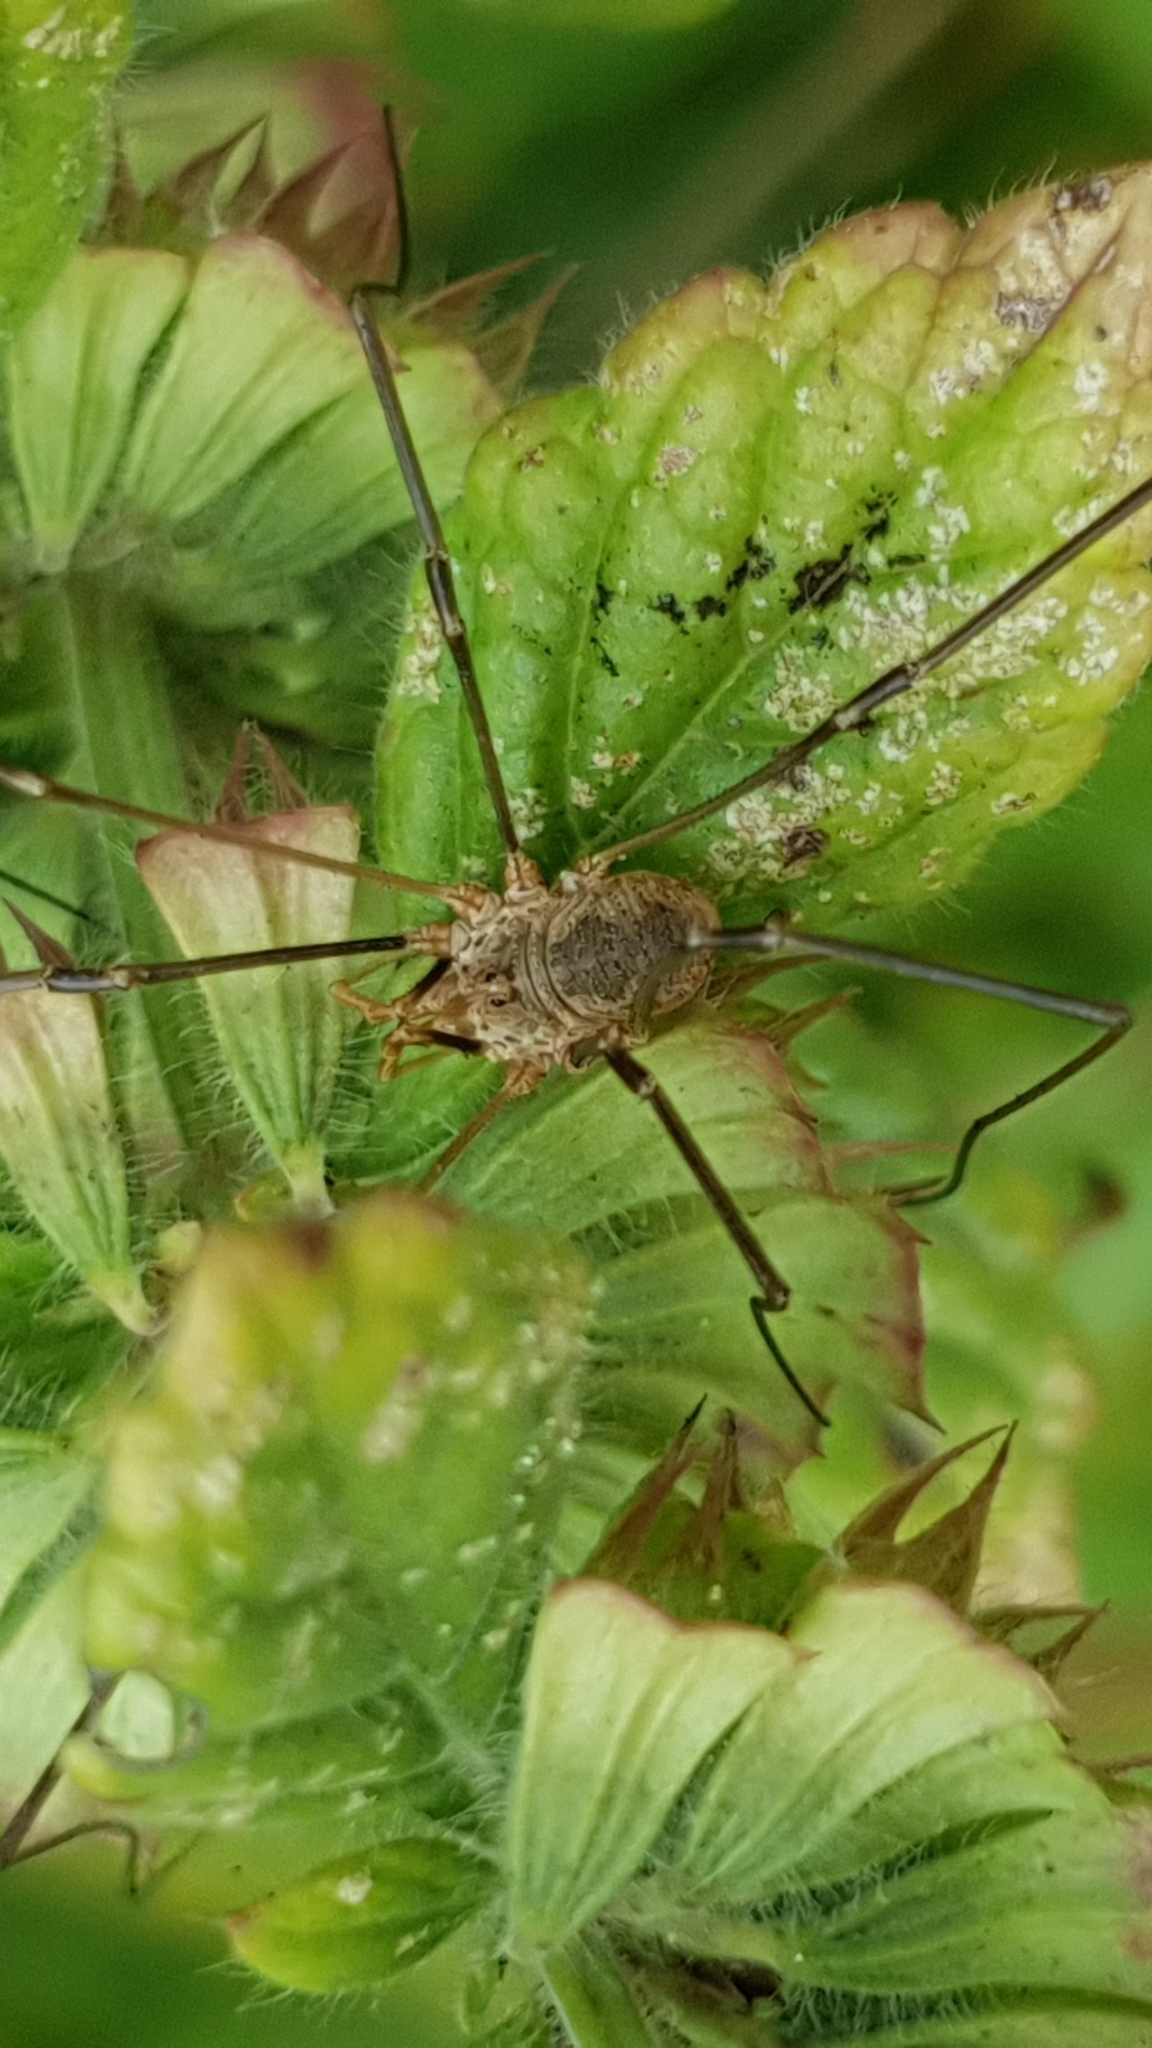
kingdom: Animalia
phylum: Arthropoda
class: Arachnida
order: Opiliones
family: Phalangiidae
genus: Phalangium
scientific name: Phalangium opilio
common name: Daddy longleg
